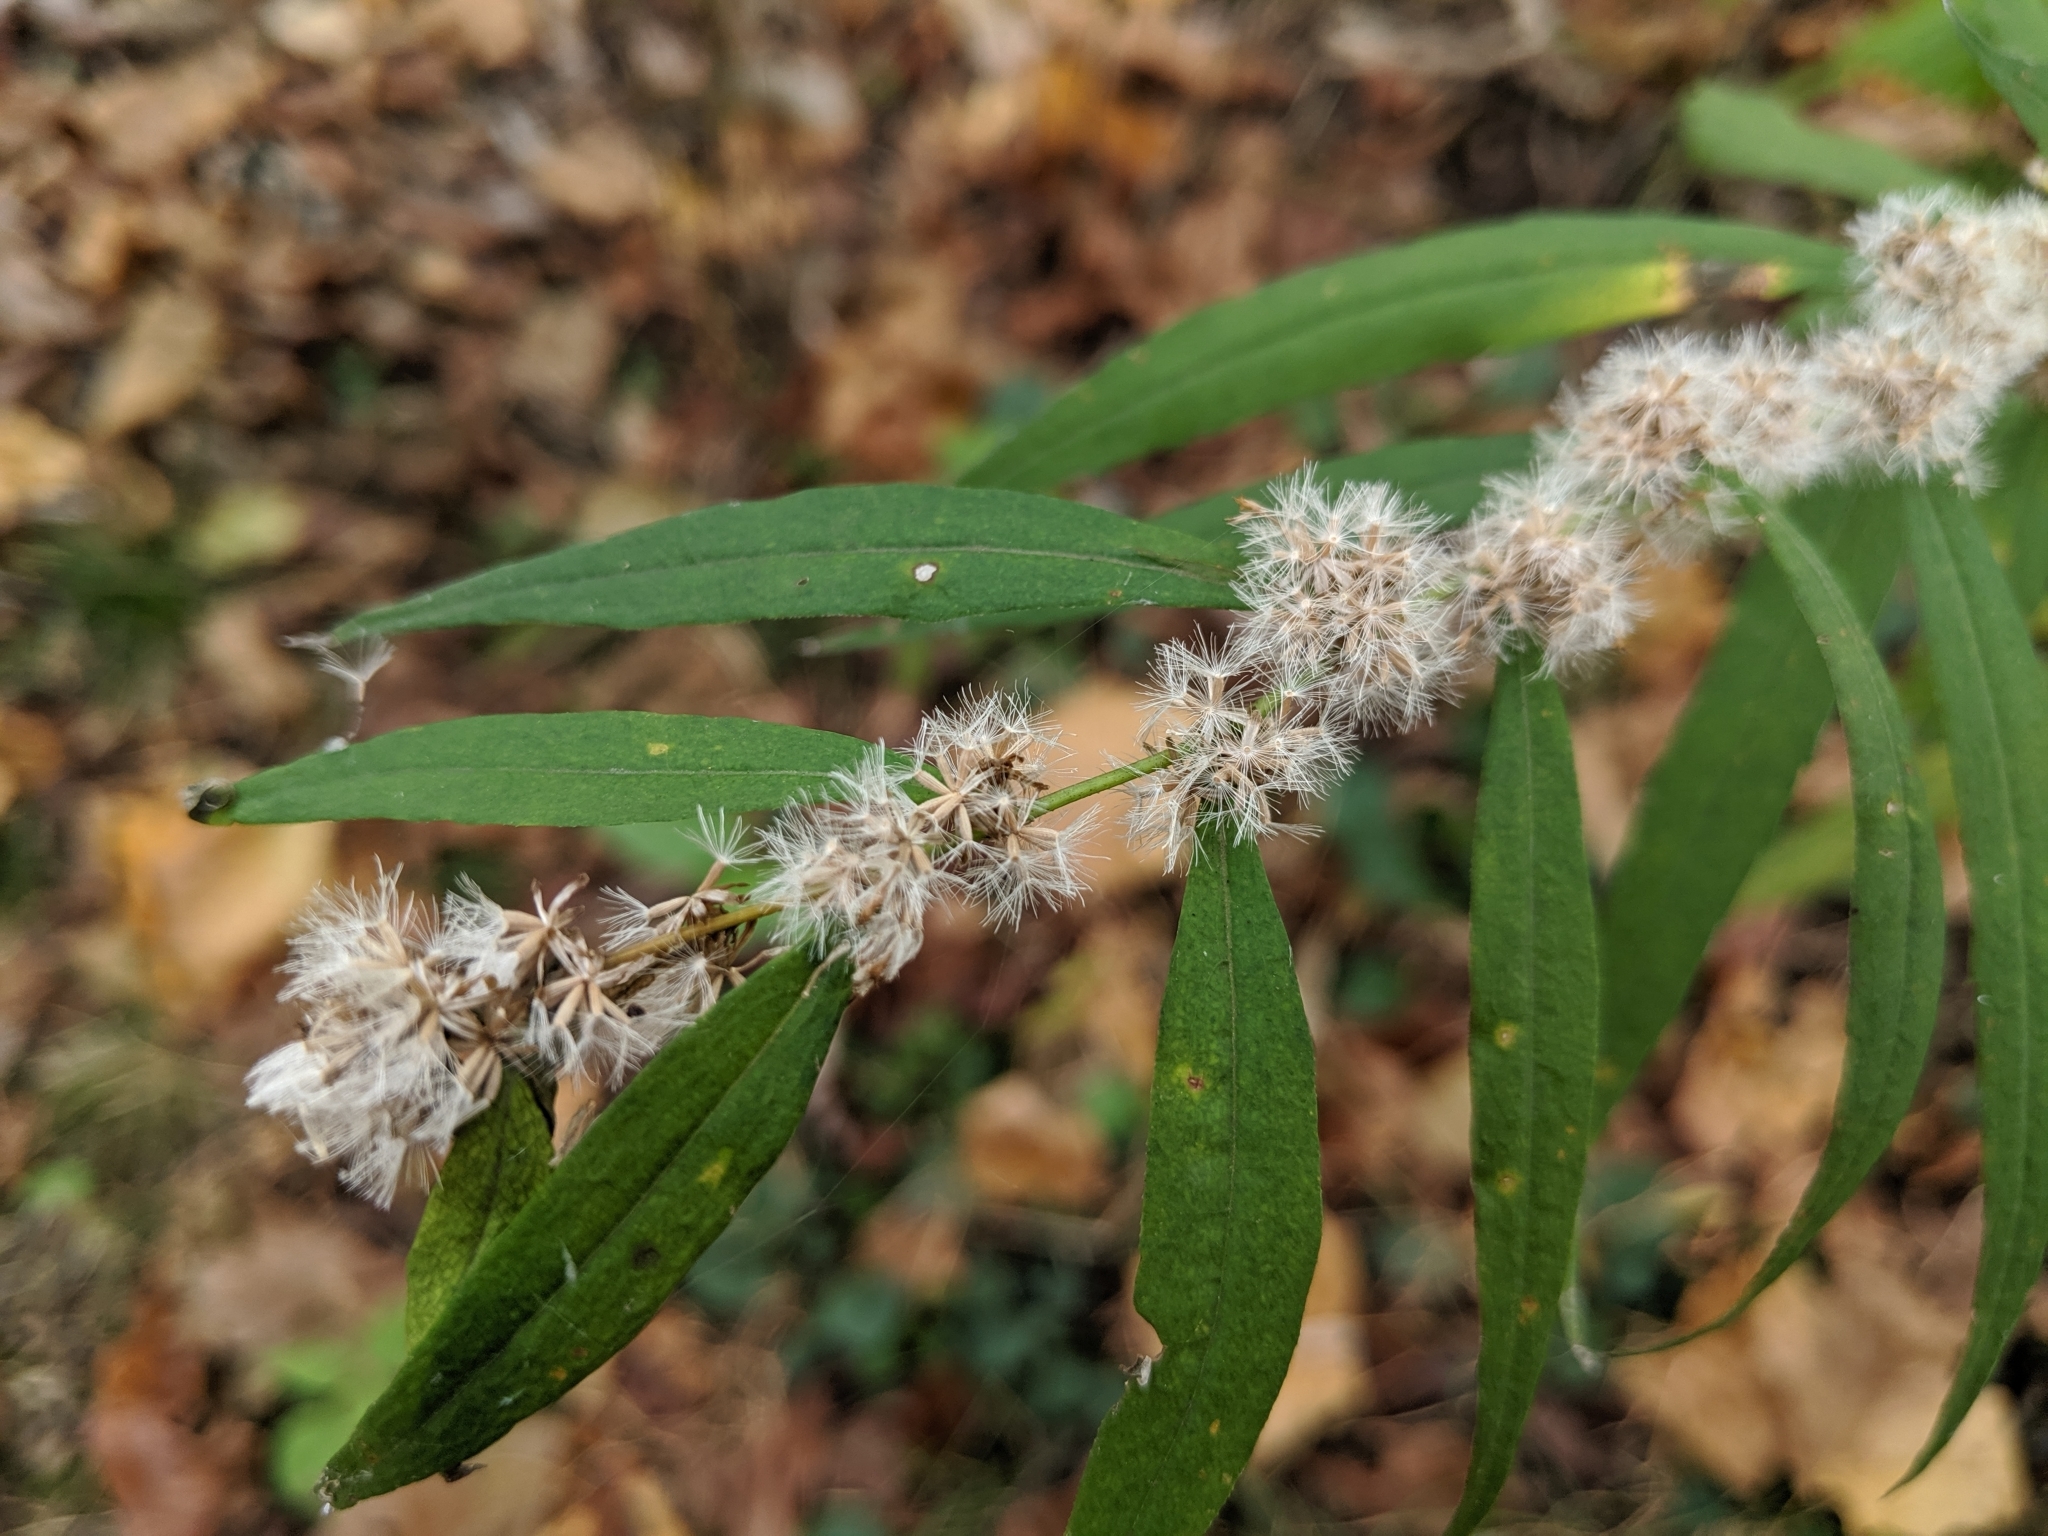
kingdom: Plantae
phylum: Tracheophyta
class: Magnoliopsida
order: Asterales
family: Asteraceae
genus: Solidago
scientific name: Solidago caesia
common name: Woodland goldenrod
